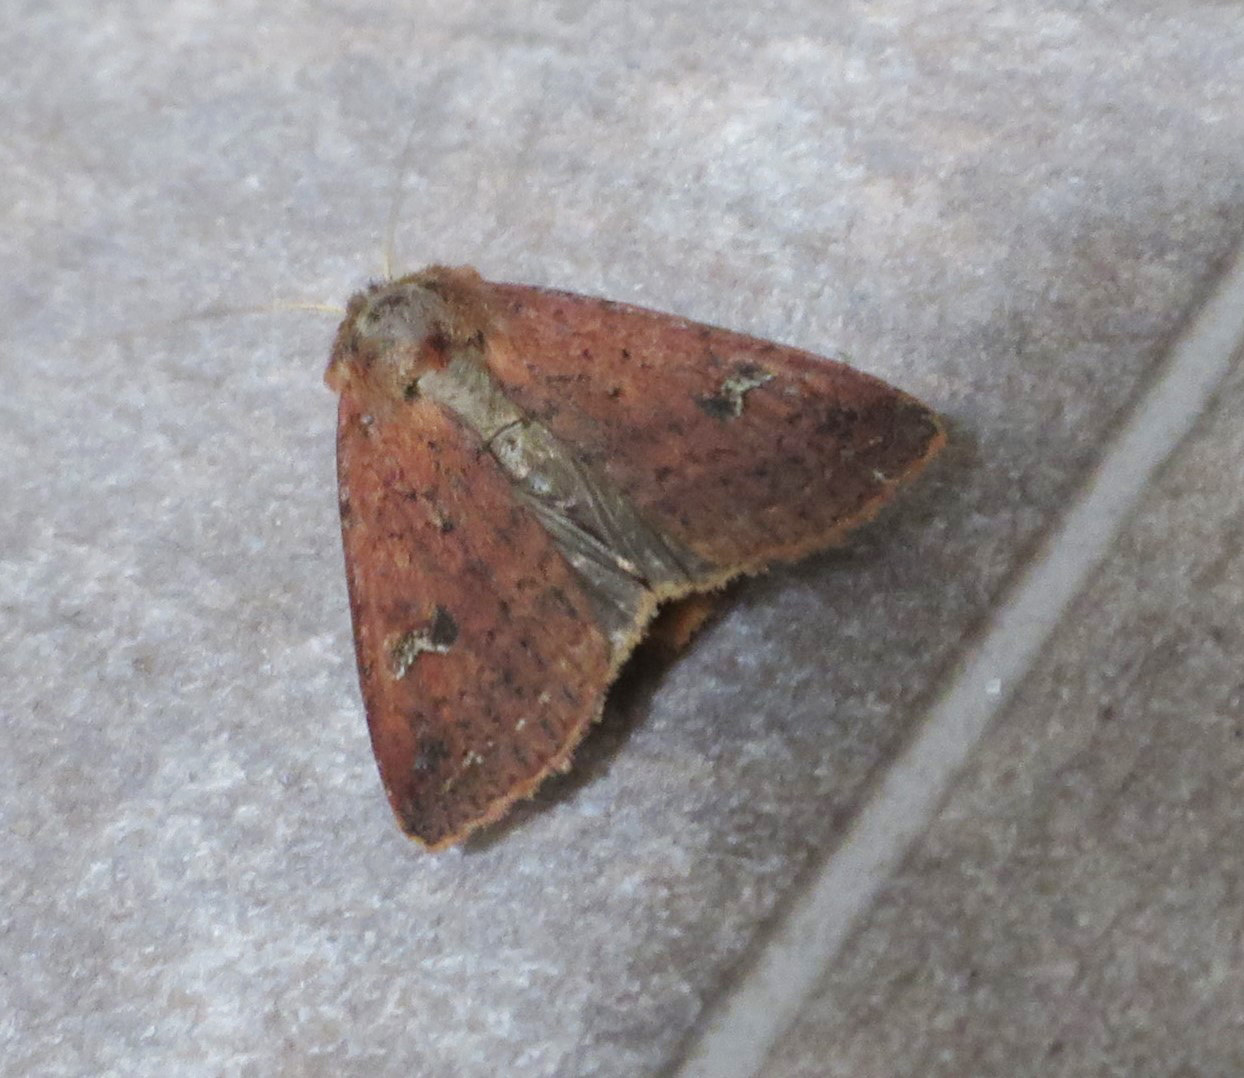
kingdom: Animalia
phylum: Arthropoda
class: Insecta
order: Lepidoptera
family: Noctuidae
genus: Diarsia
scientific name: Diarsia intermixta
